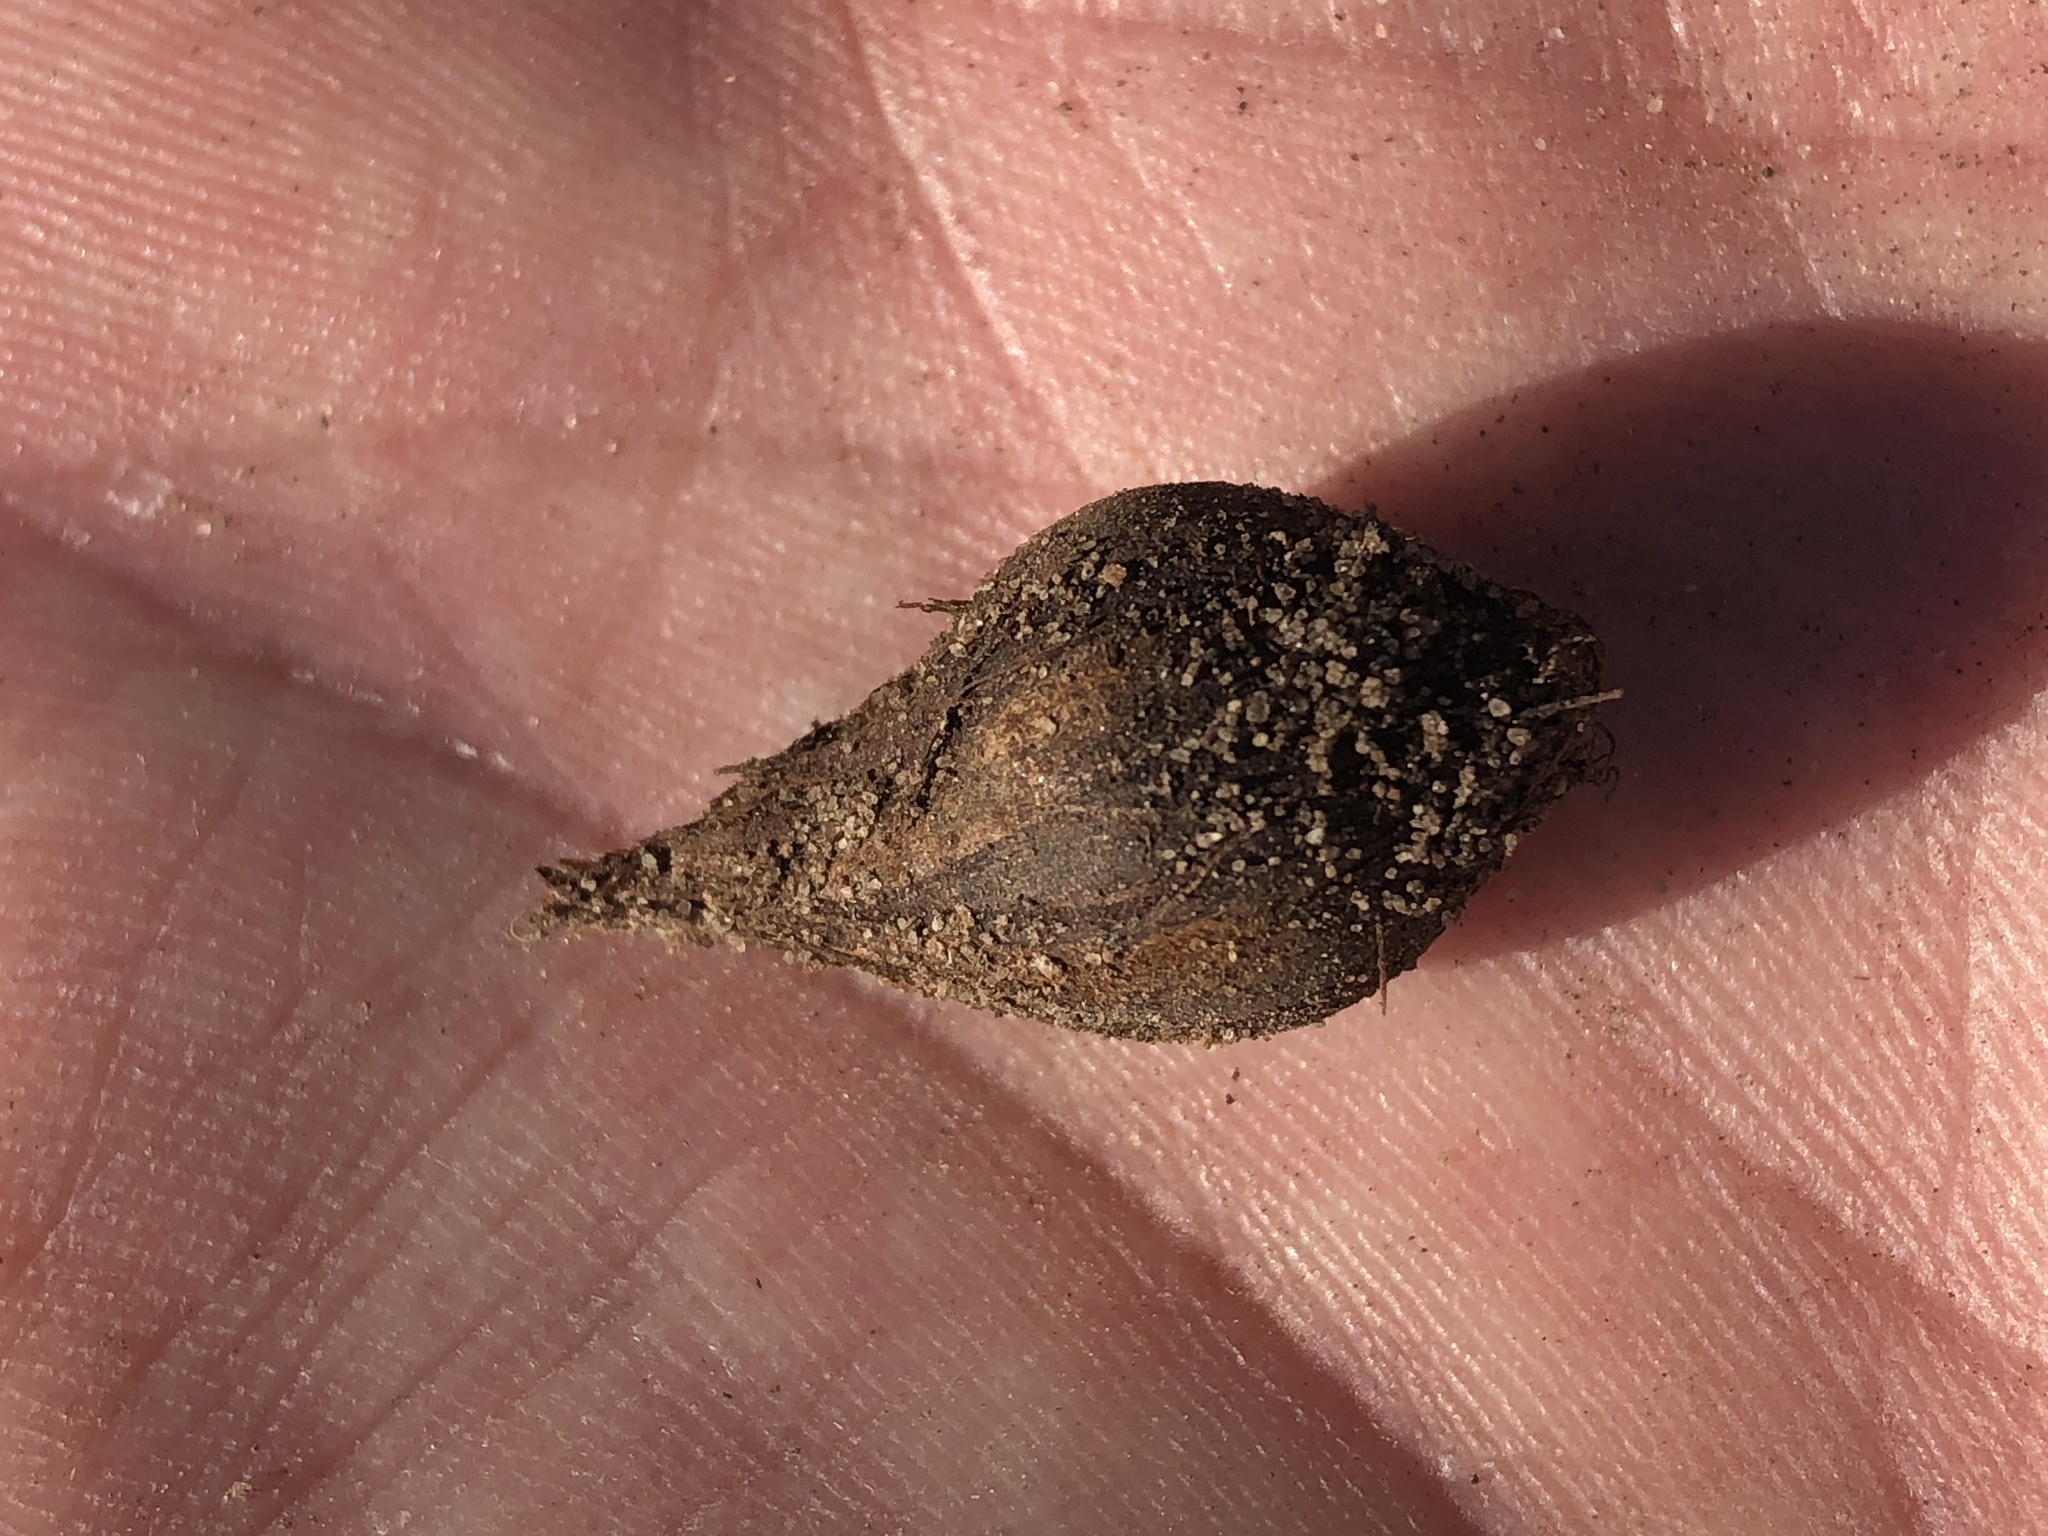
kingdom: Plantae
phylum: Tracheophyta
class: Magnoliopsida
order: Oxalidales
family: Oxalidaceae
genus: Oxalis
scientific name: Oxalis imbricata
